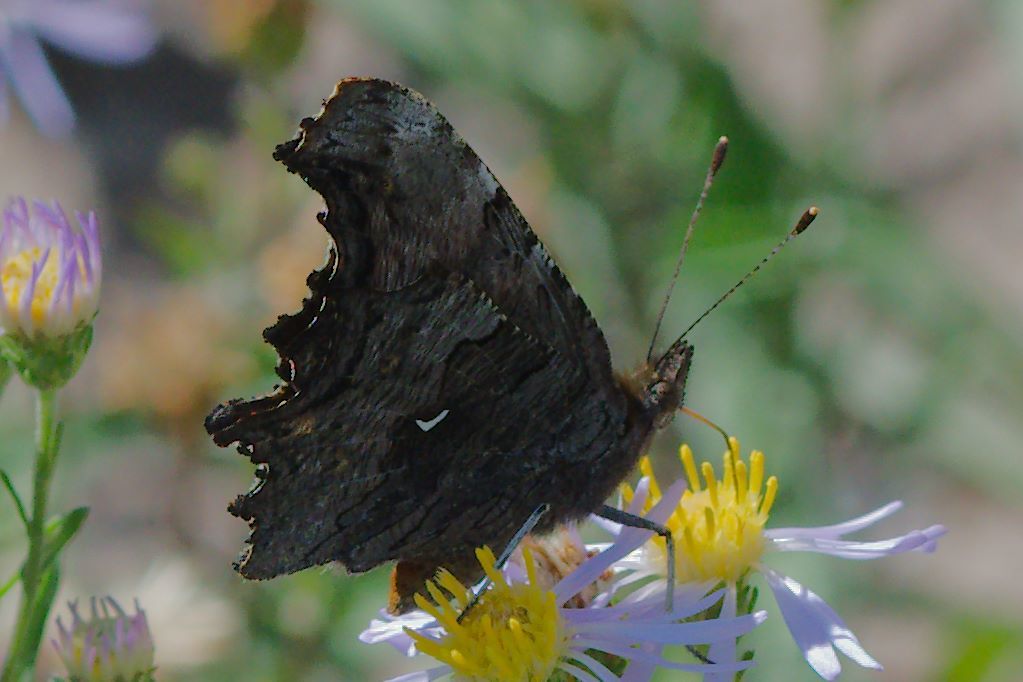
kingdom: Animalia
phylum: Arthropoda
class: Insecta
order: Lepidoptera
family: Nymphalidae
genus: Polygonia
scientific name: Polygonia gracilis
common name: Hoary comma
